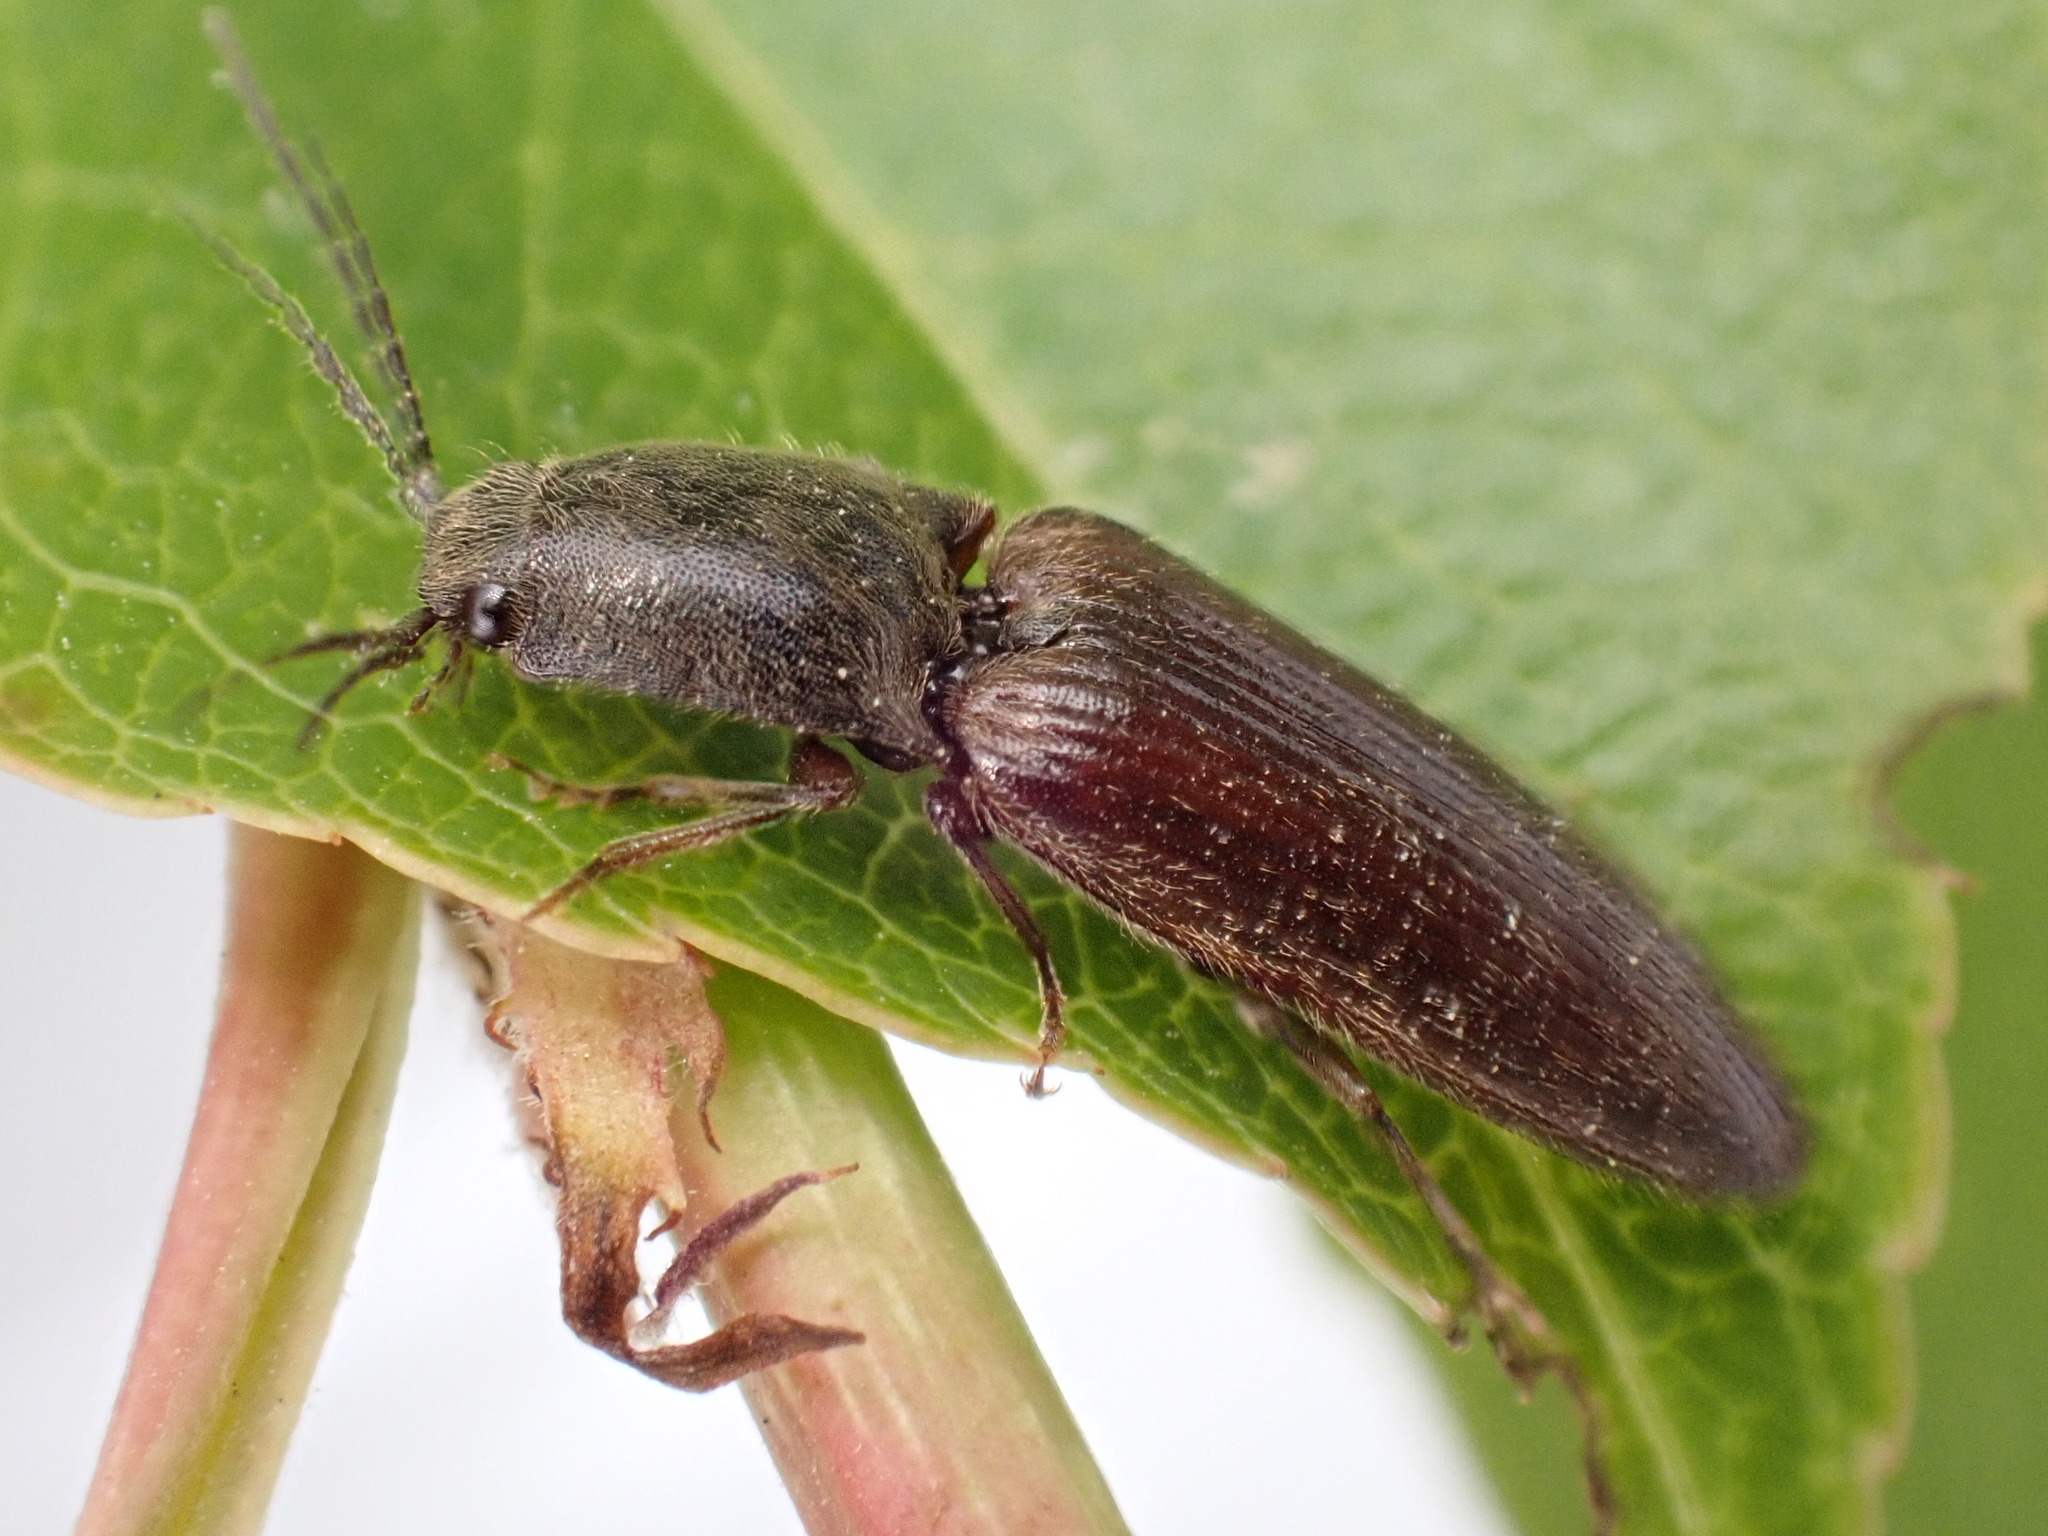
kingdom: Animalia
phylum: Arthropoda
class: Insecta
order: Coleoptera
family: Elateridae
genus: Athous
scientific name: Athous haemorrhoidalis
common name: Red-brown click beetle
